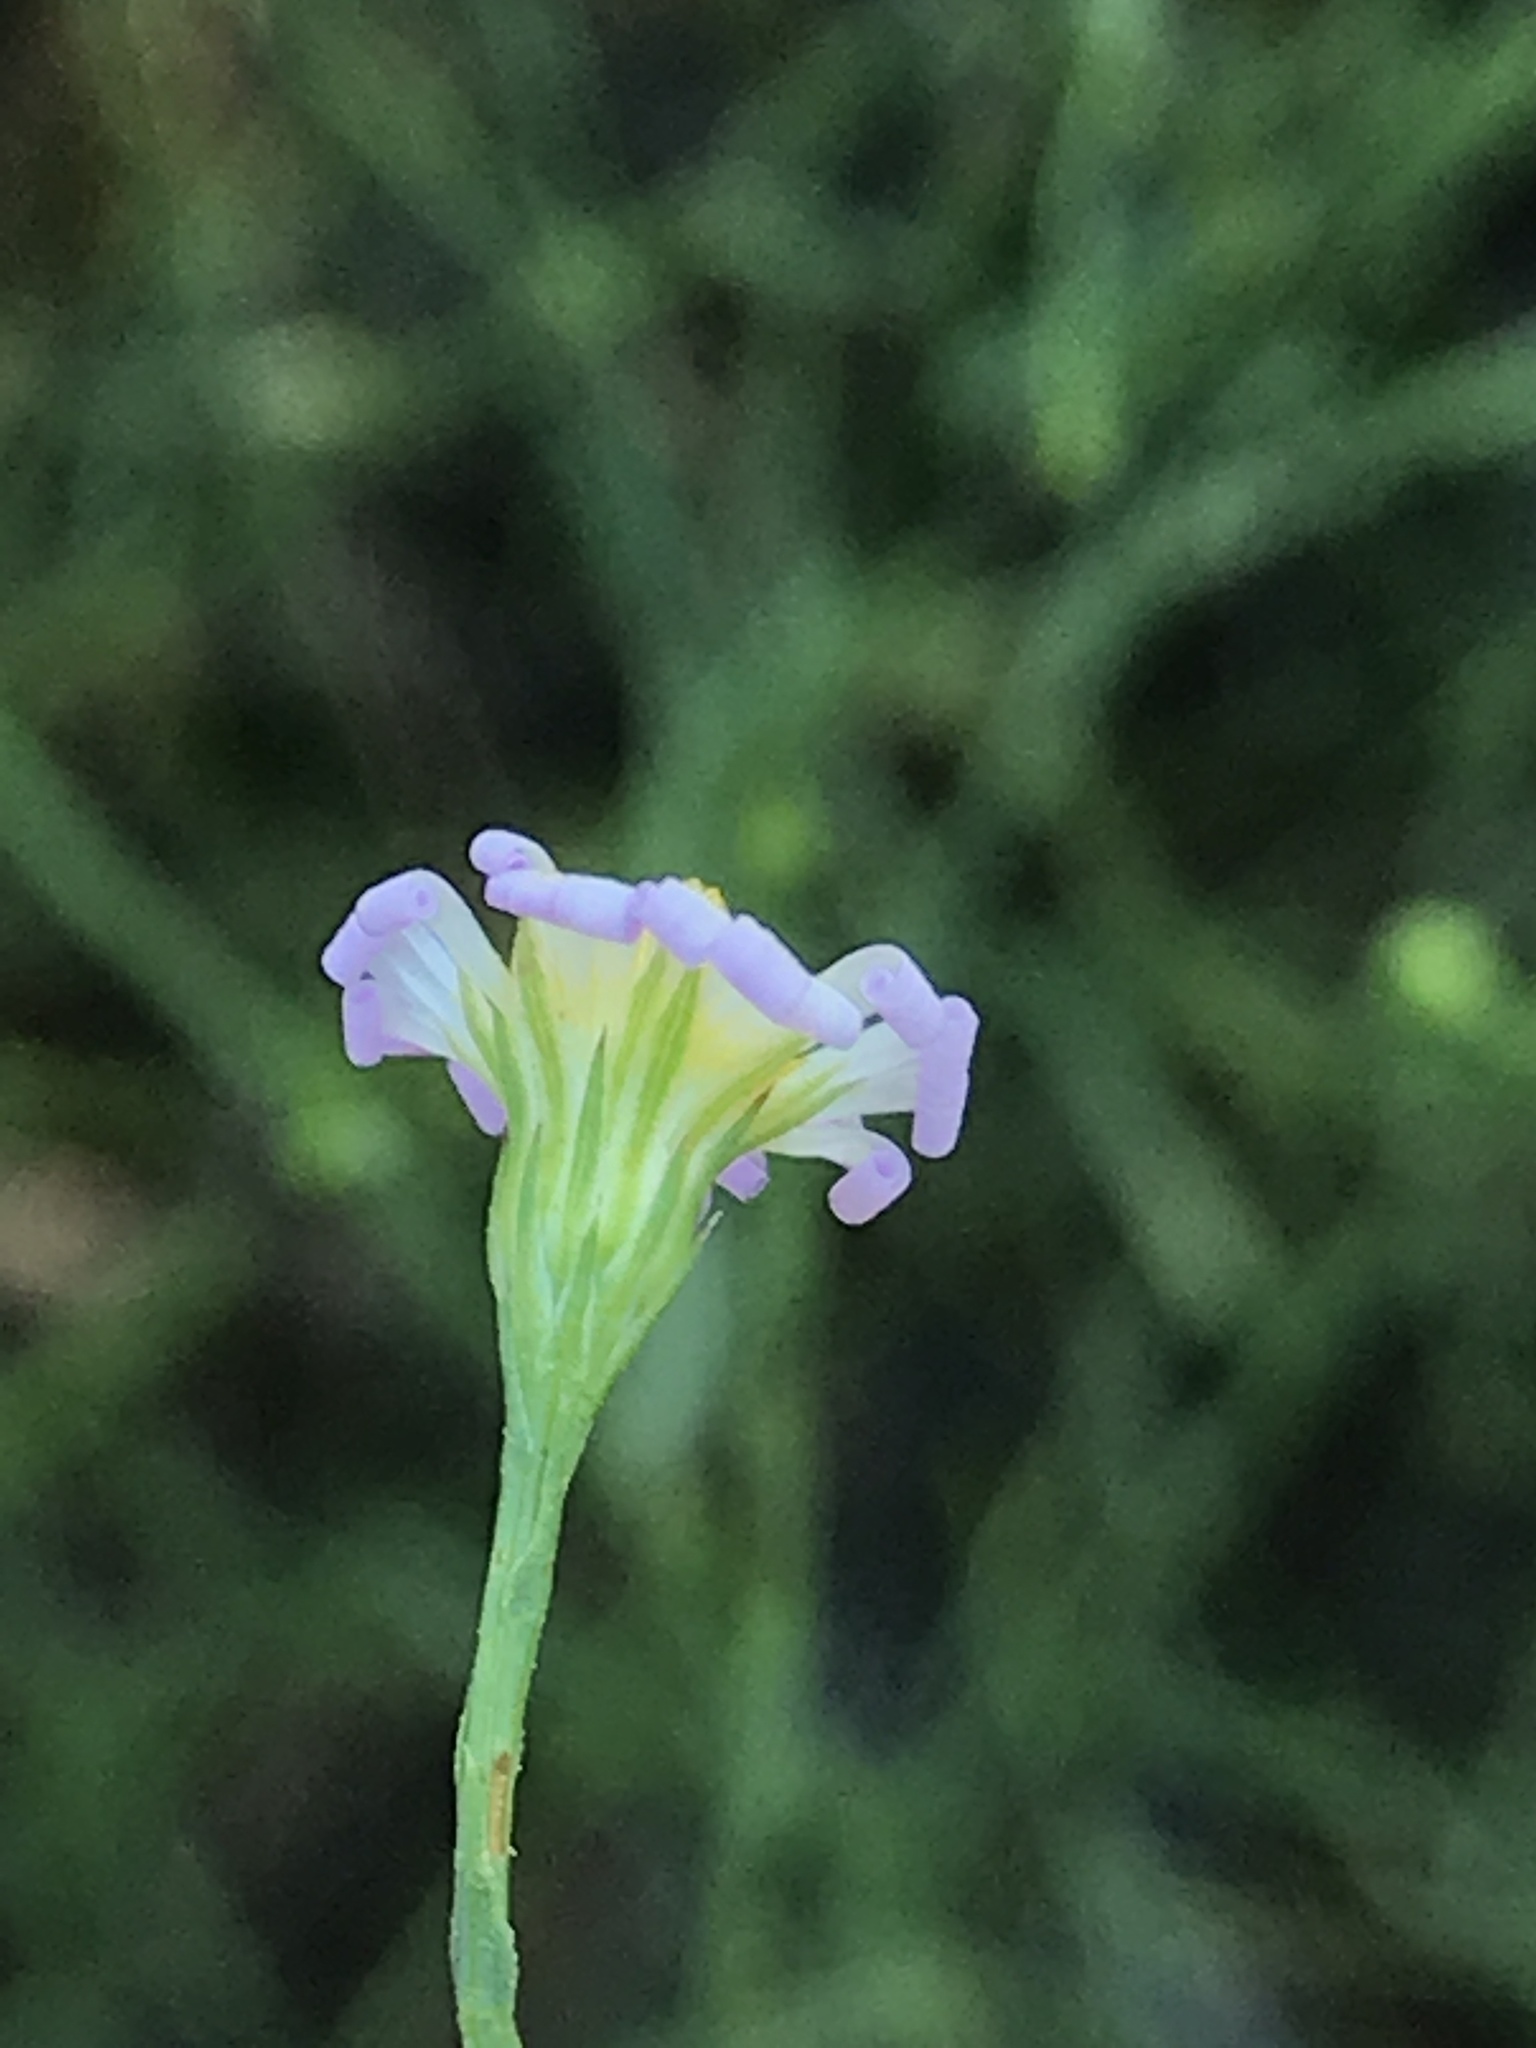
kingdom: Plantae
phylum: Tracheophyta
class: Magnoliopsida
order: Asterales
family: Asteraceae
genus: Symphyotrichum
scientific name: Symphyotrichum divaricatum
